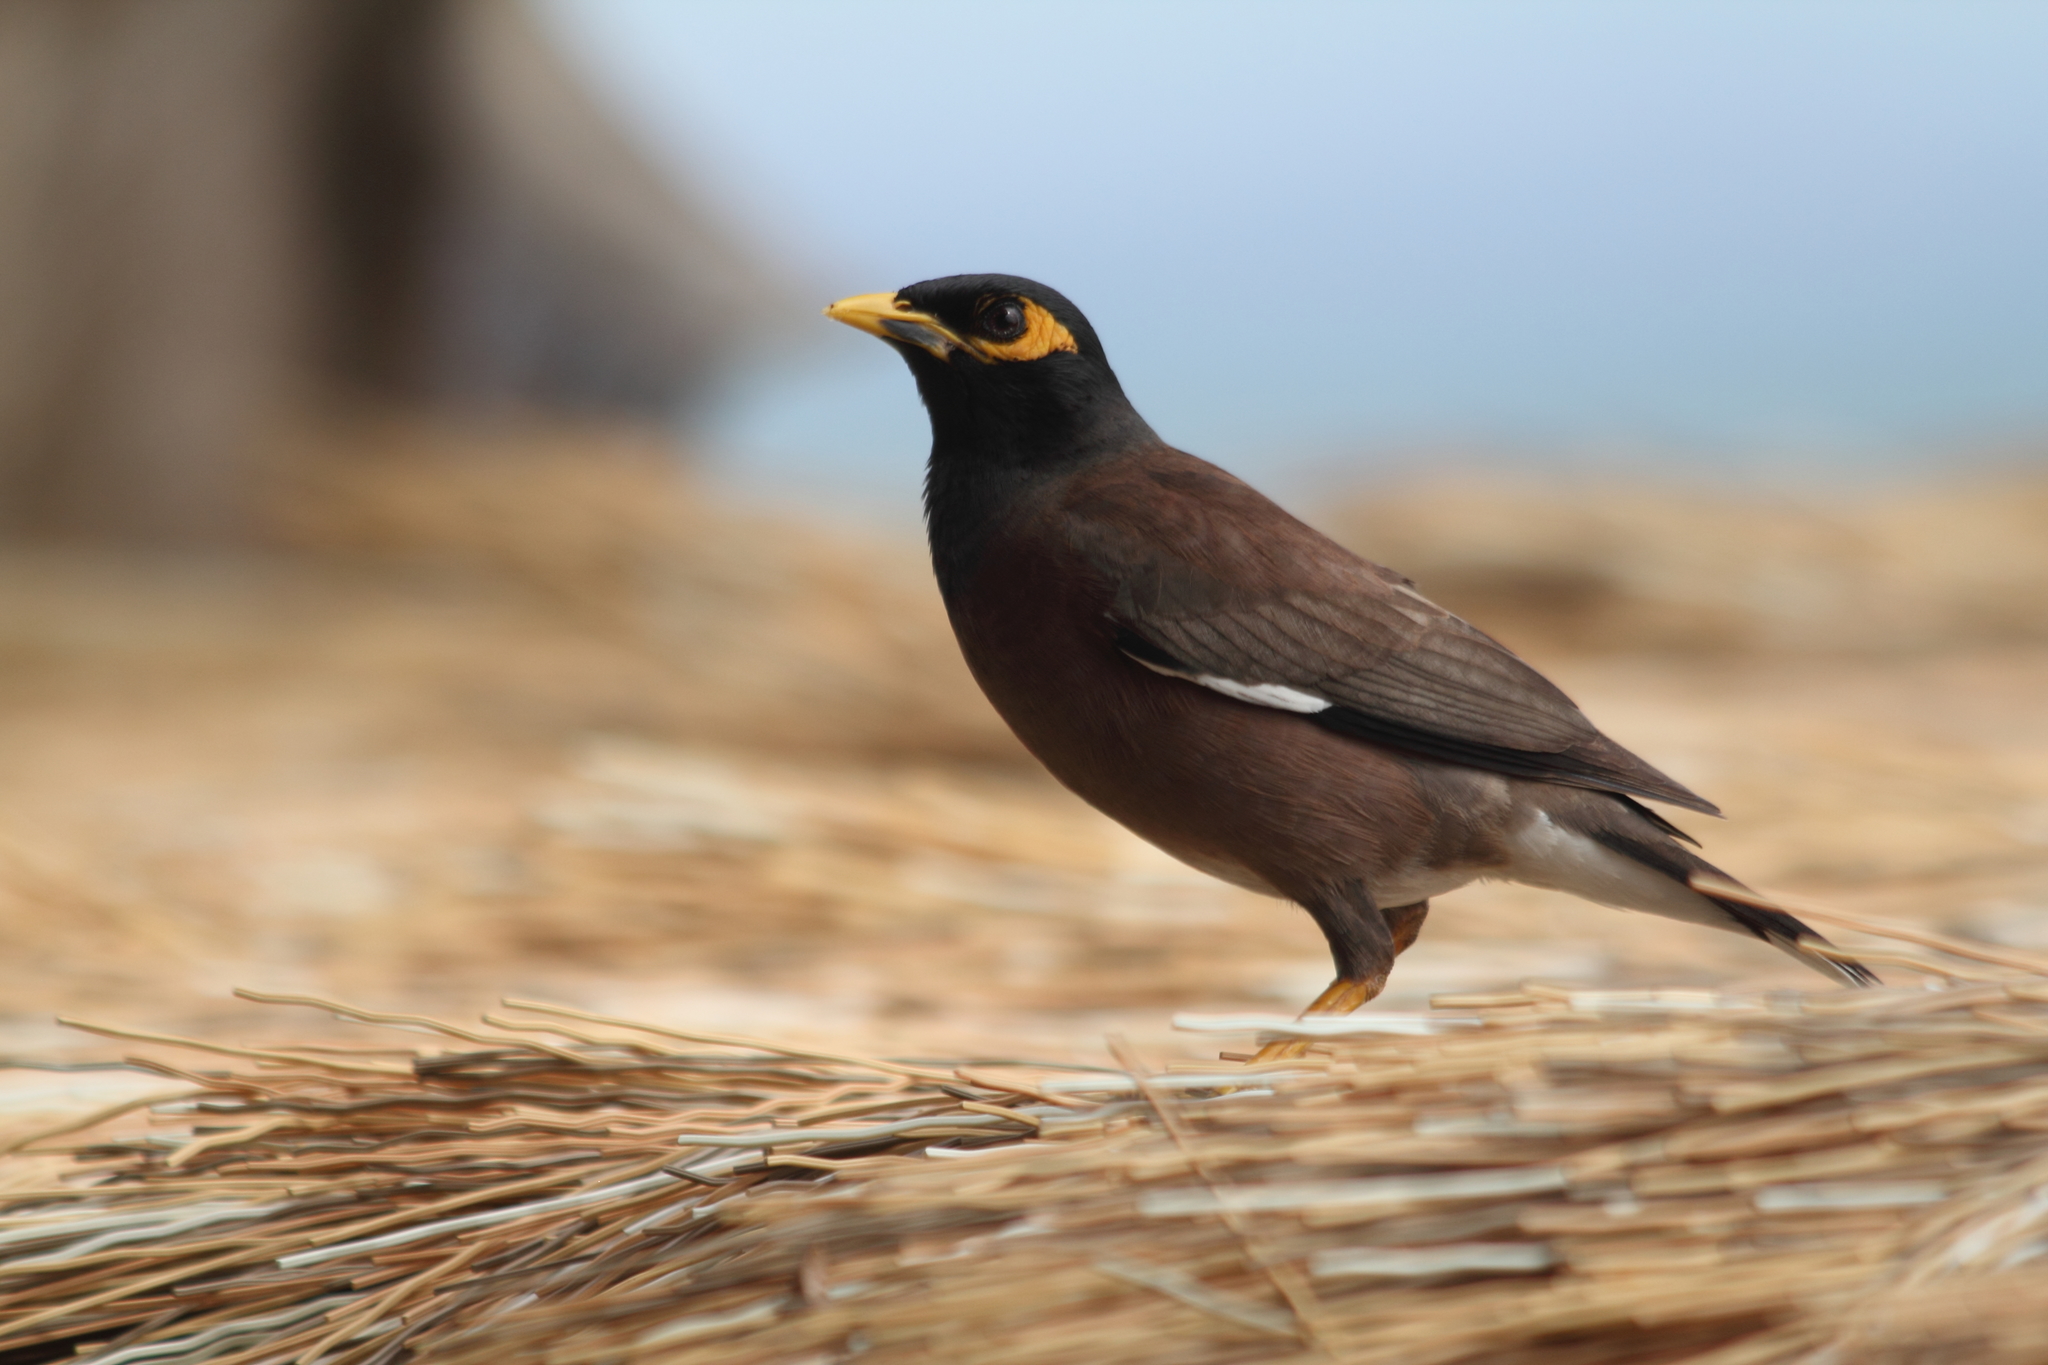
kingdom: Animalia
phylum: Chordata
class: Aves
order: Passeriformes
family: Sturnidae
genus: Acridotheres
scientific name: Acridotheres tristis
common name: Common myna
